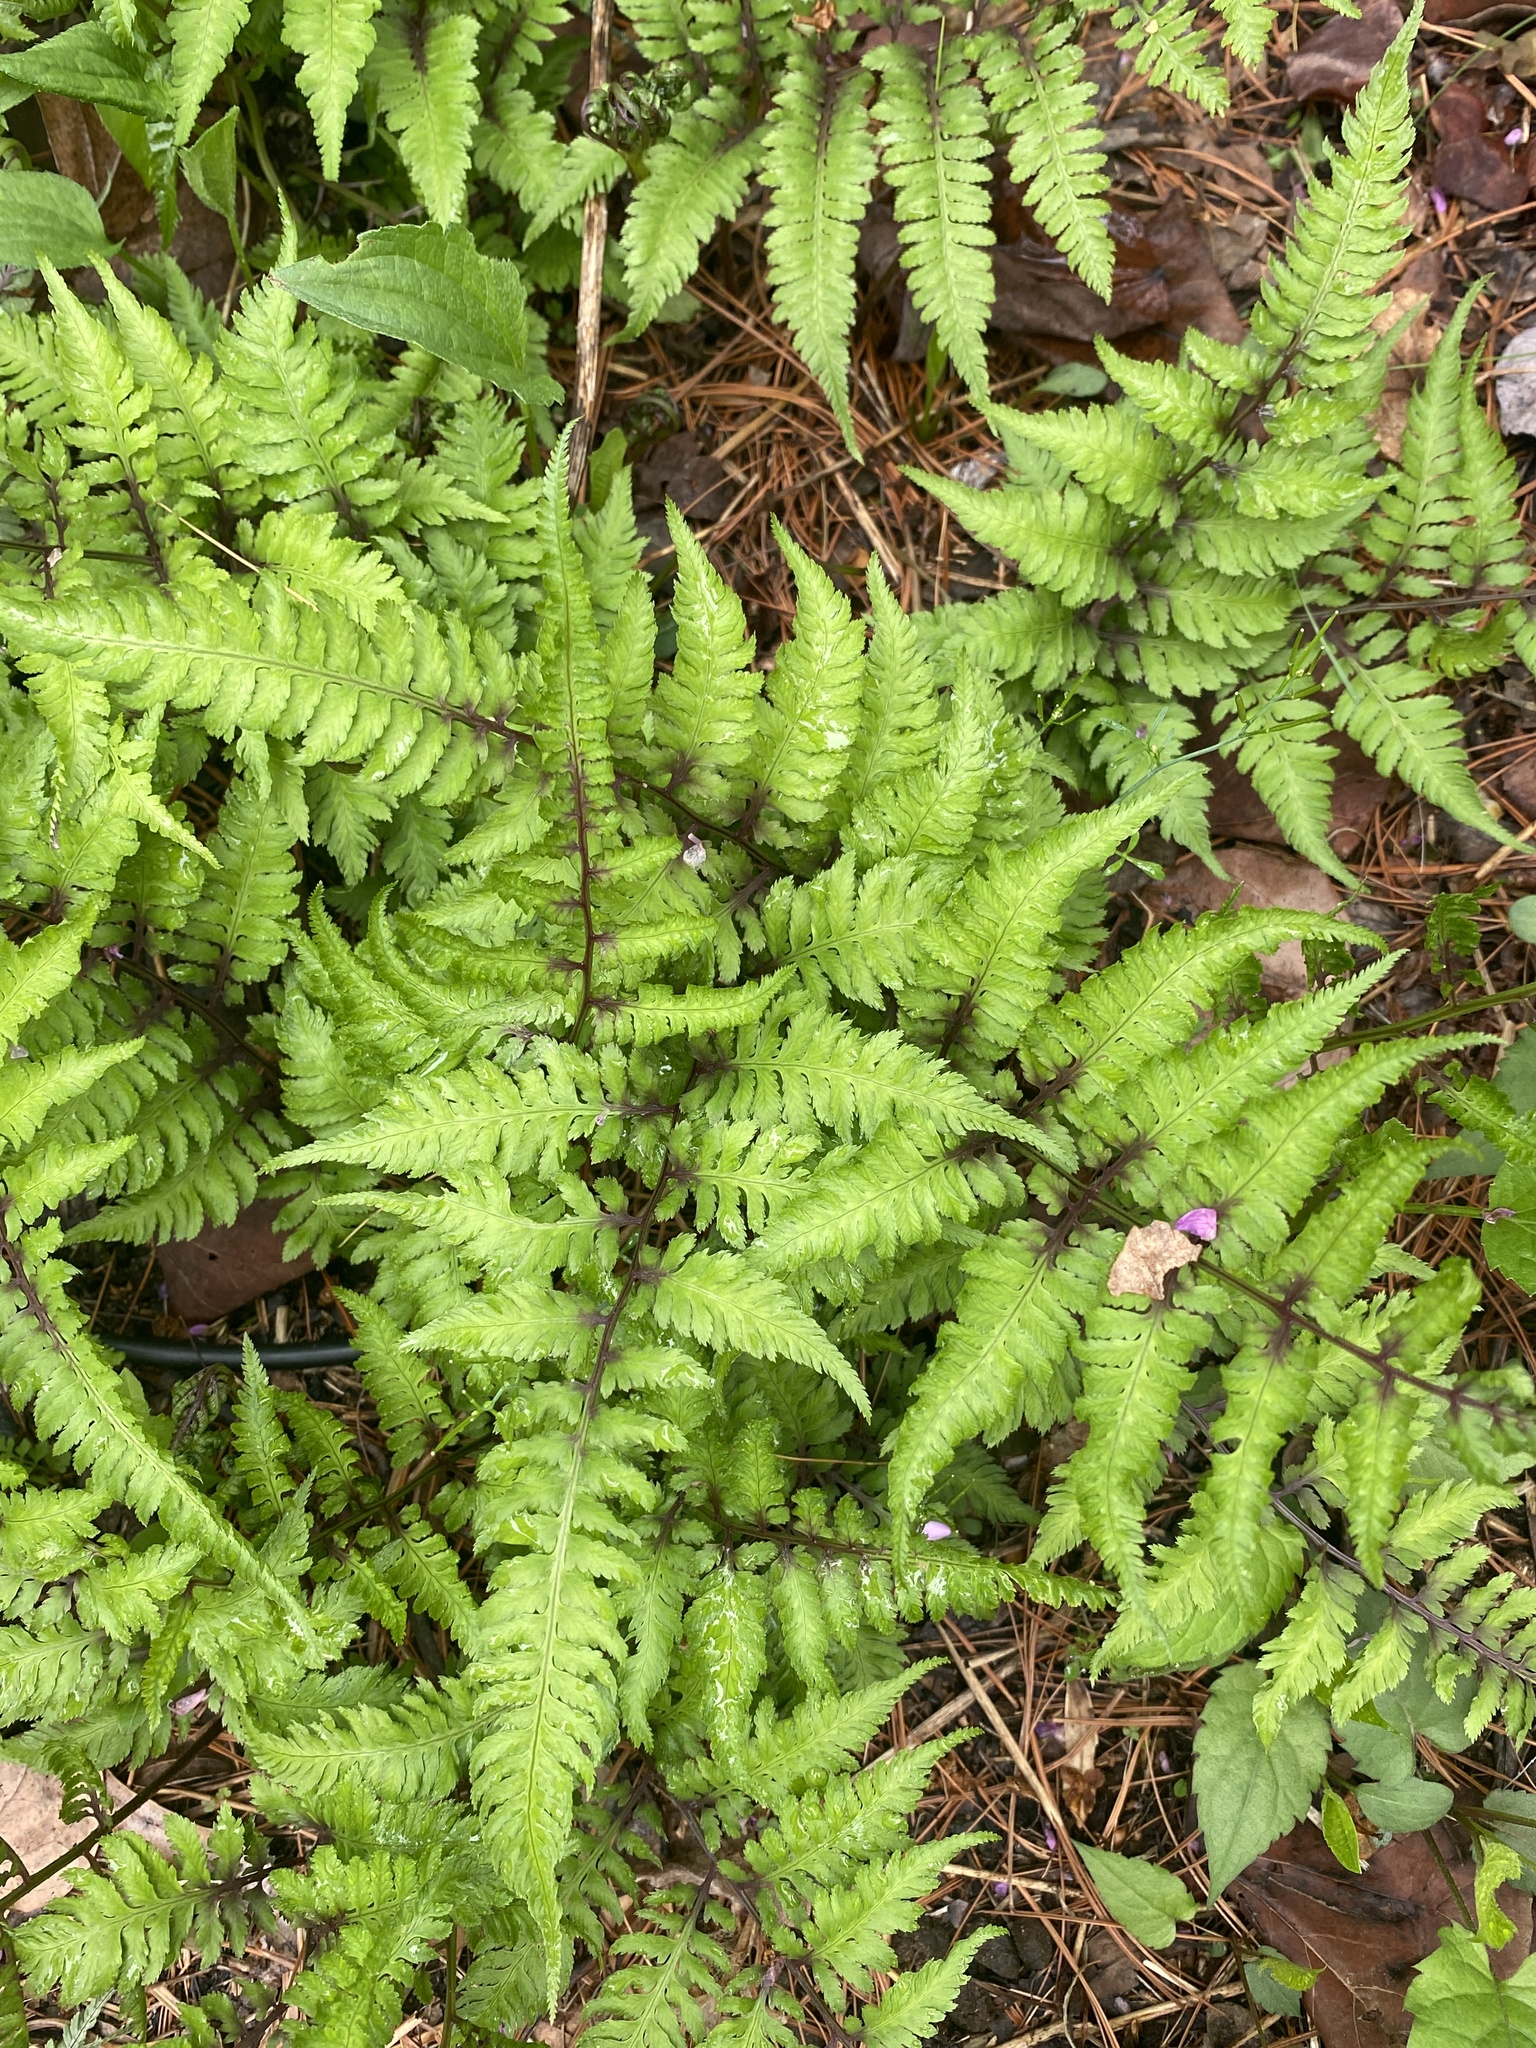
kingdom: Plantae
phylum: Tracheophyta
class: Polypodiopsida
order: Polypodiales
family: Athyriaceae
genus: Anisocampium
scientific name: Anisocampium niponicum
